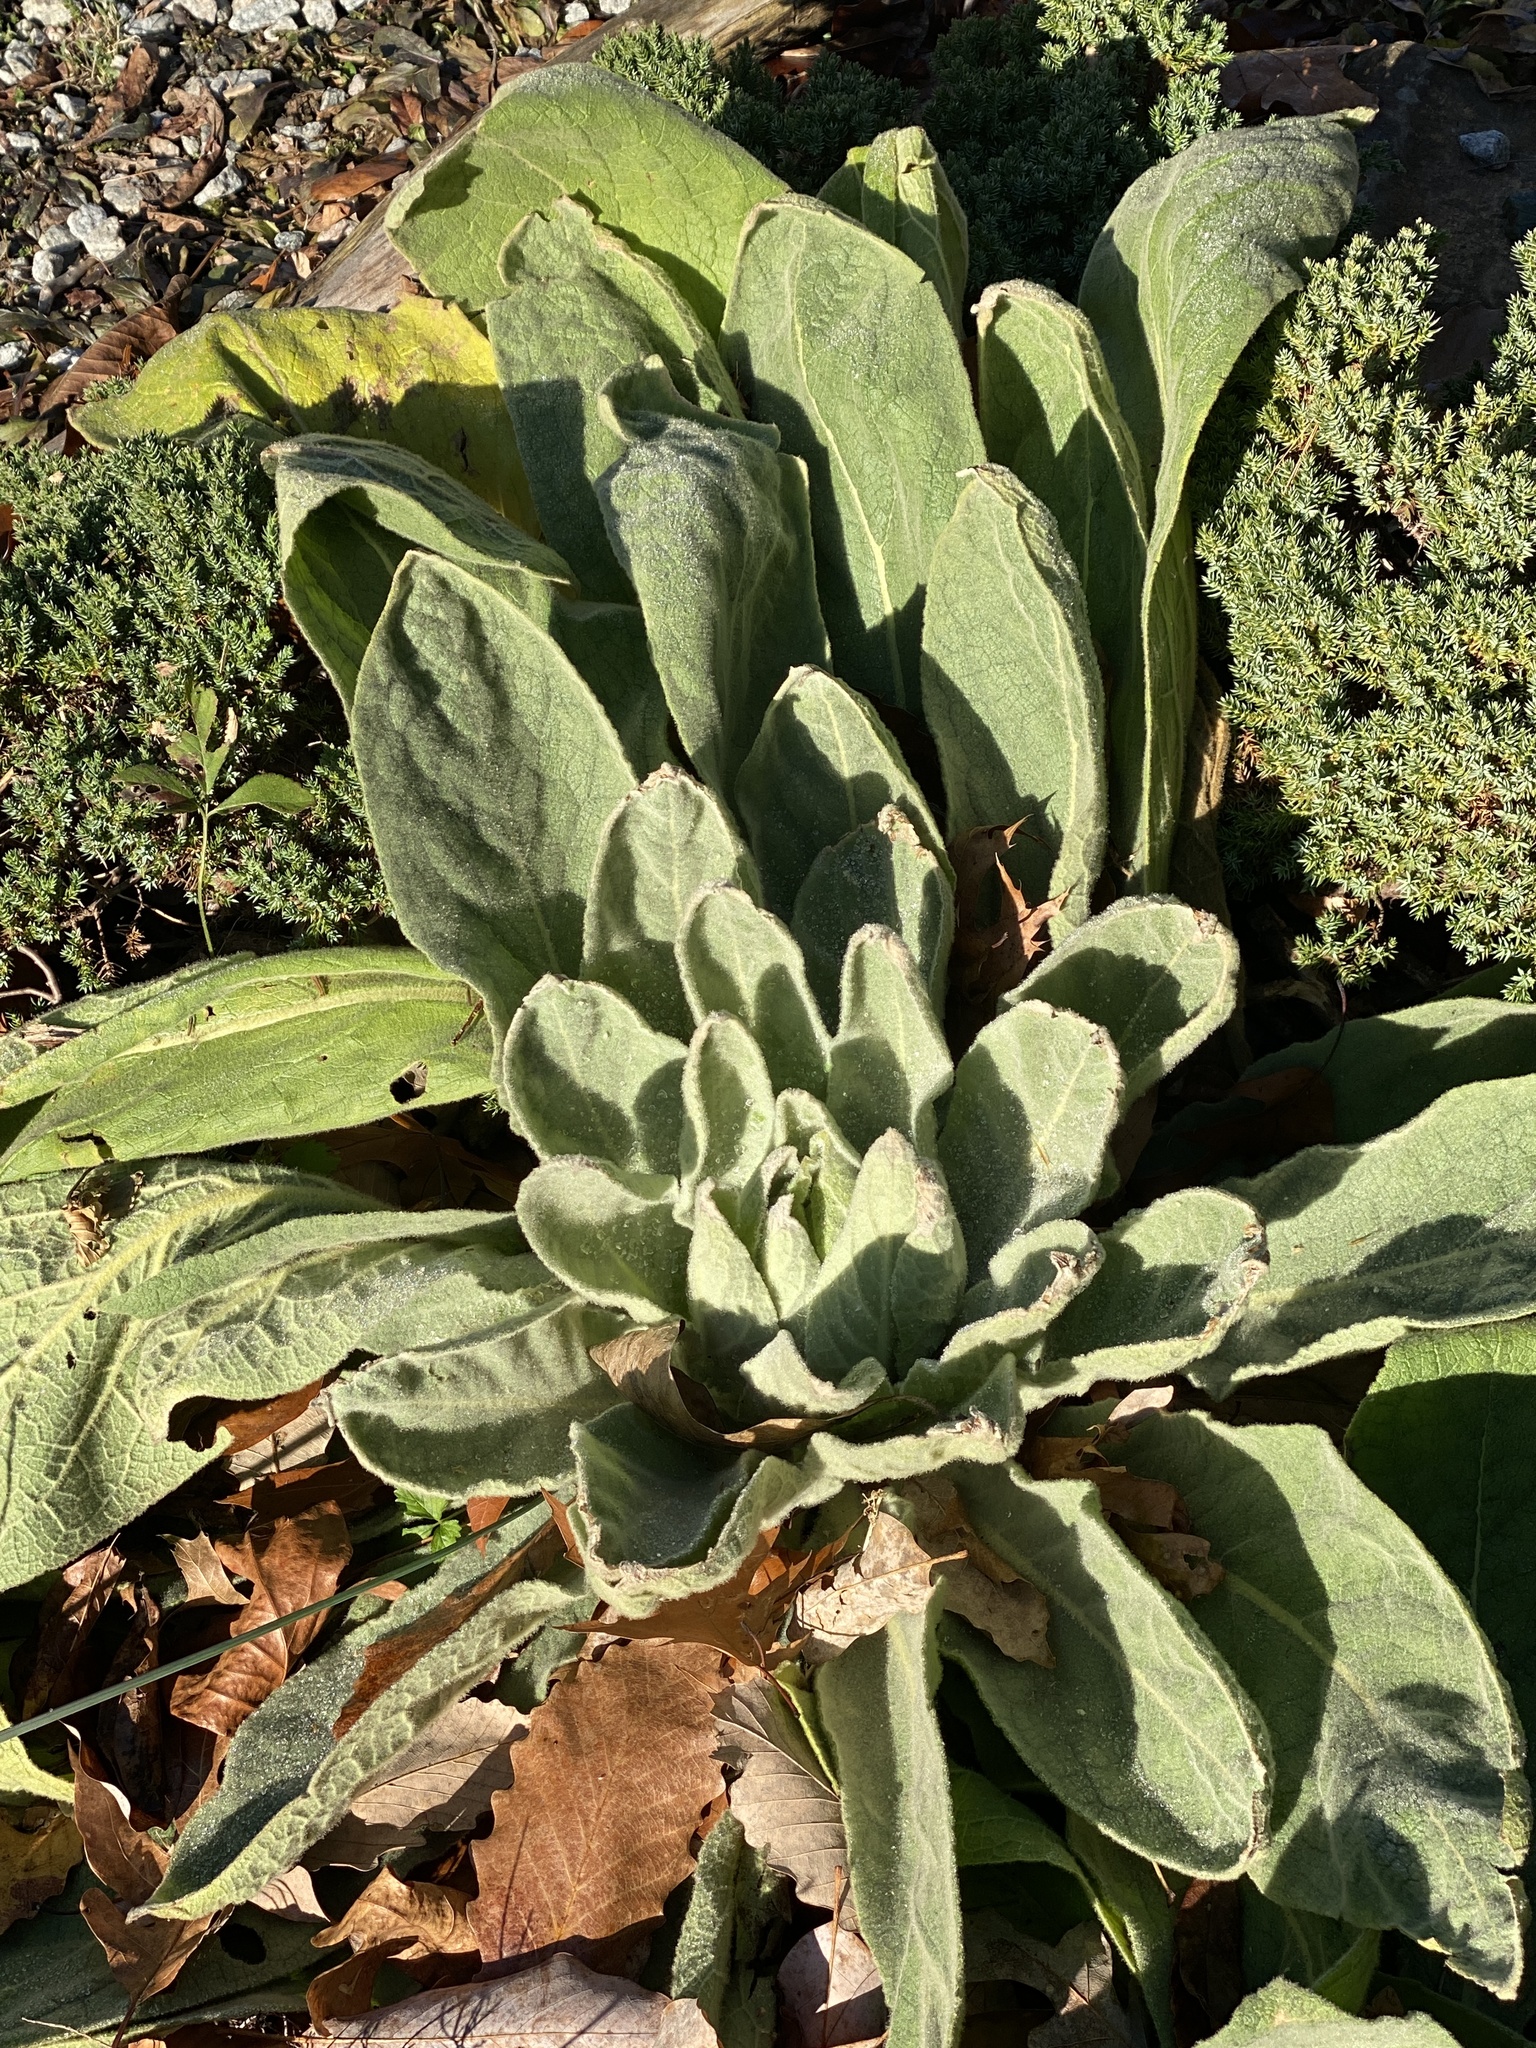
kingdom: Plantae
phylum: Tracheophyta
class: Magnoliopsida
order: Lamiales
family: Scrophulariaceae
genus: Verbascum
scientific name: Verbascum thapsus
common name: Common mullein
